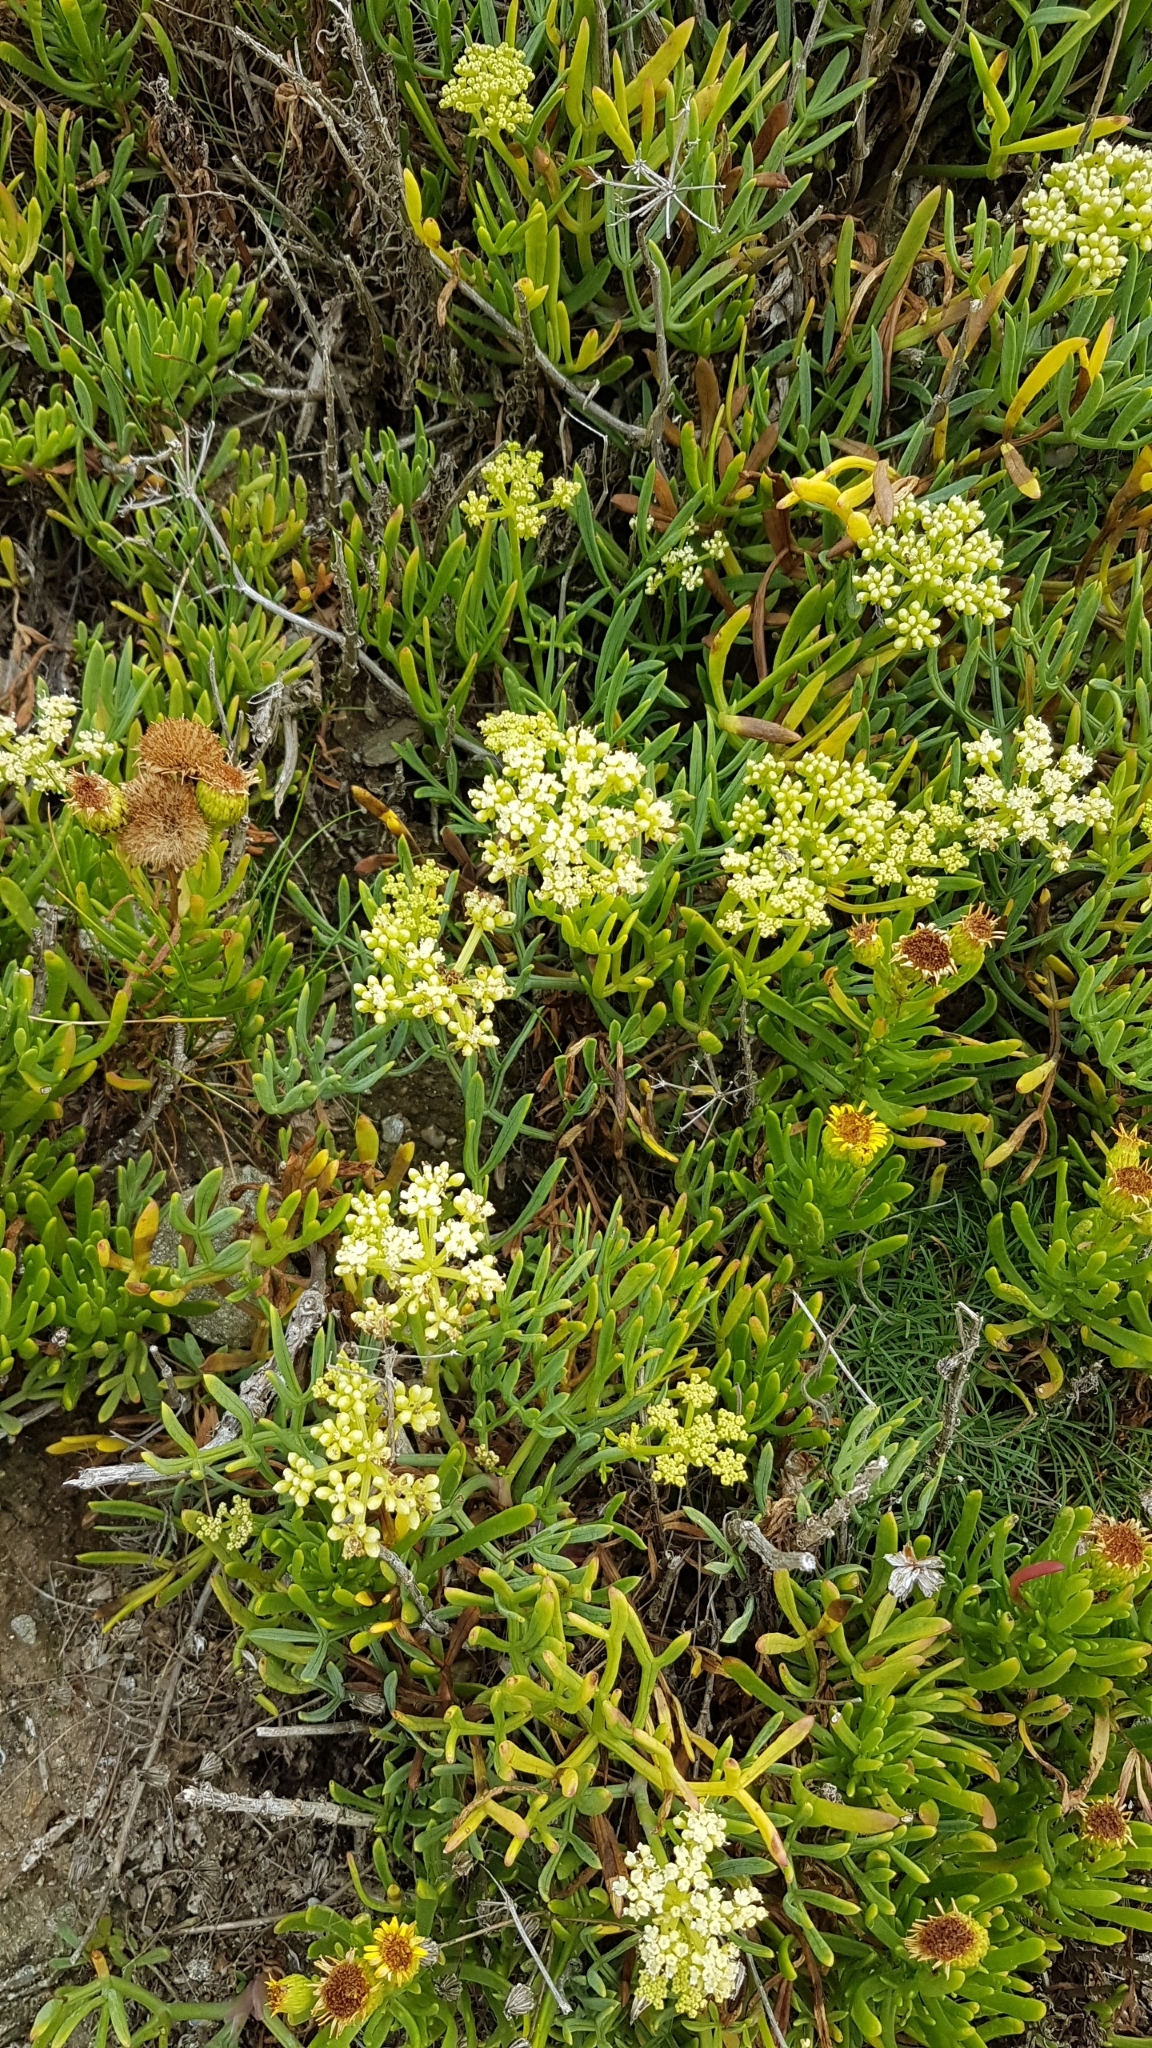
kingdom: Plantae
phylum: Tracheophyta
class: Magnoliopsida
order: Apiales
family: Apiaceae
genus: Crithmum
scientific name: Crithmum maritimum
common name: Rock samphire
